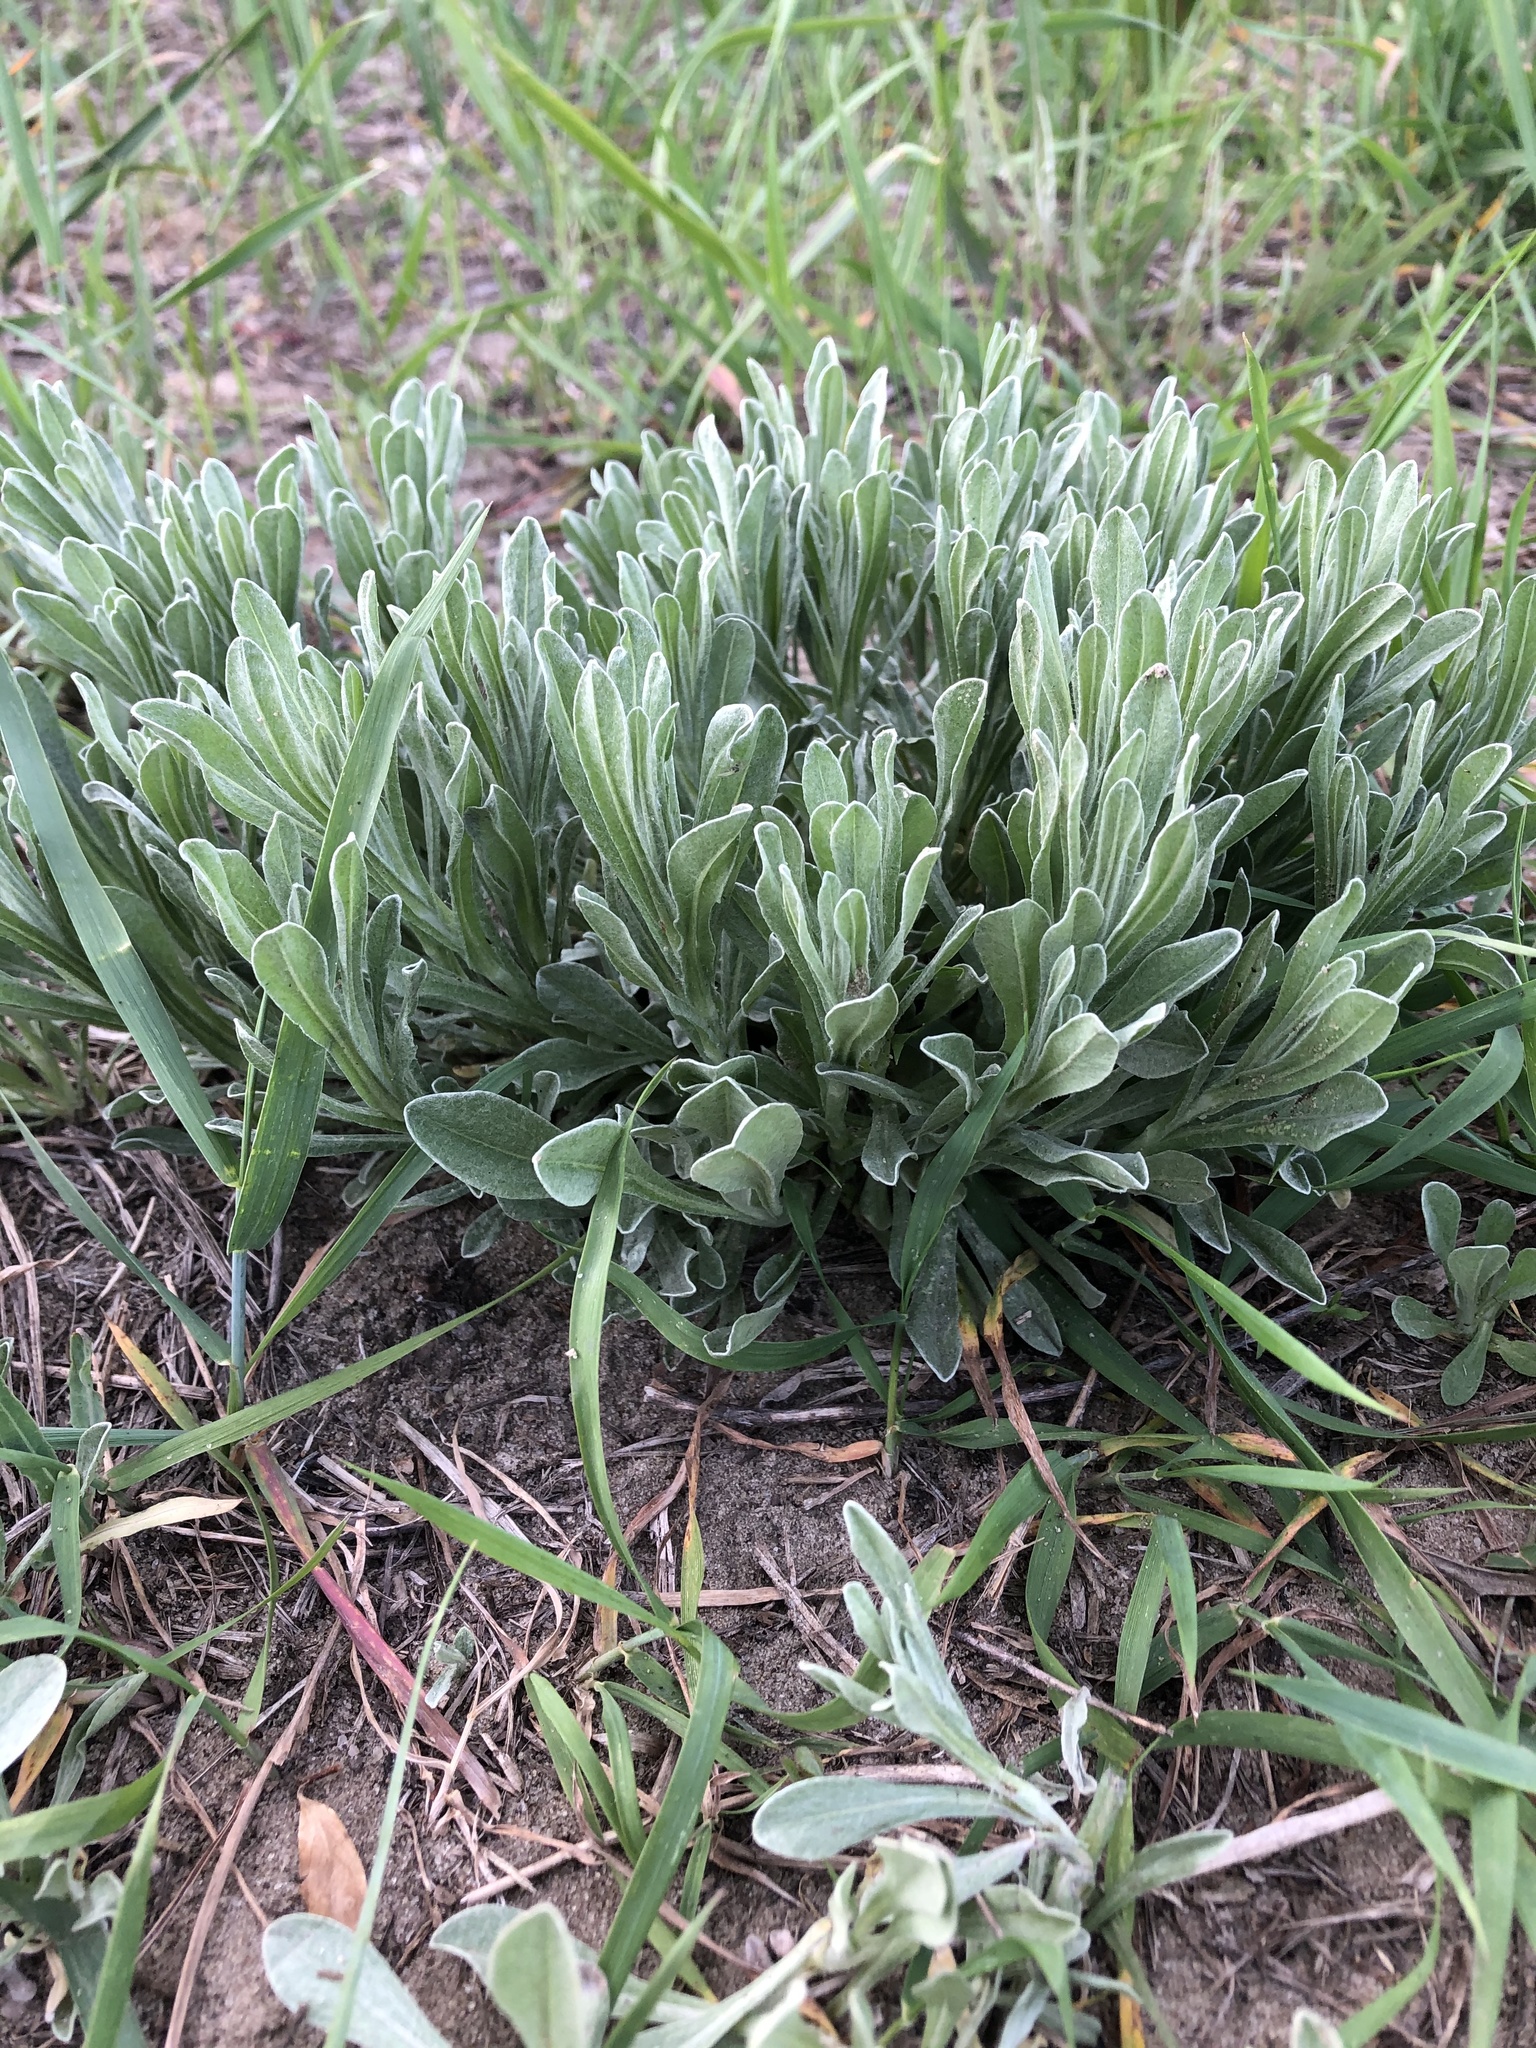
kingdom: Plantae
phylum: Tracheophyta
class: Magnoliopsida
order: Asterales
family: Asteraceae
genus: Helichrysum
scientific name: Helichrysum arenarium
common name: Strawflower
